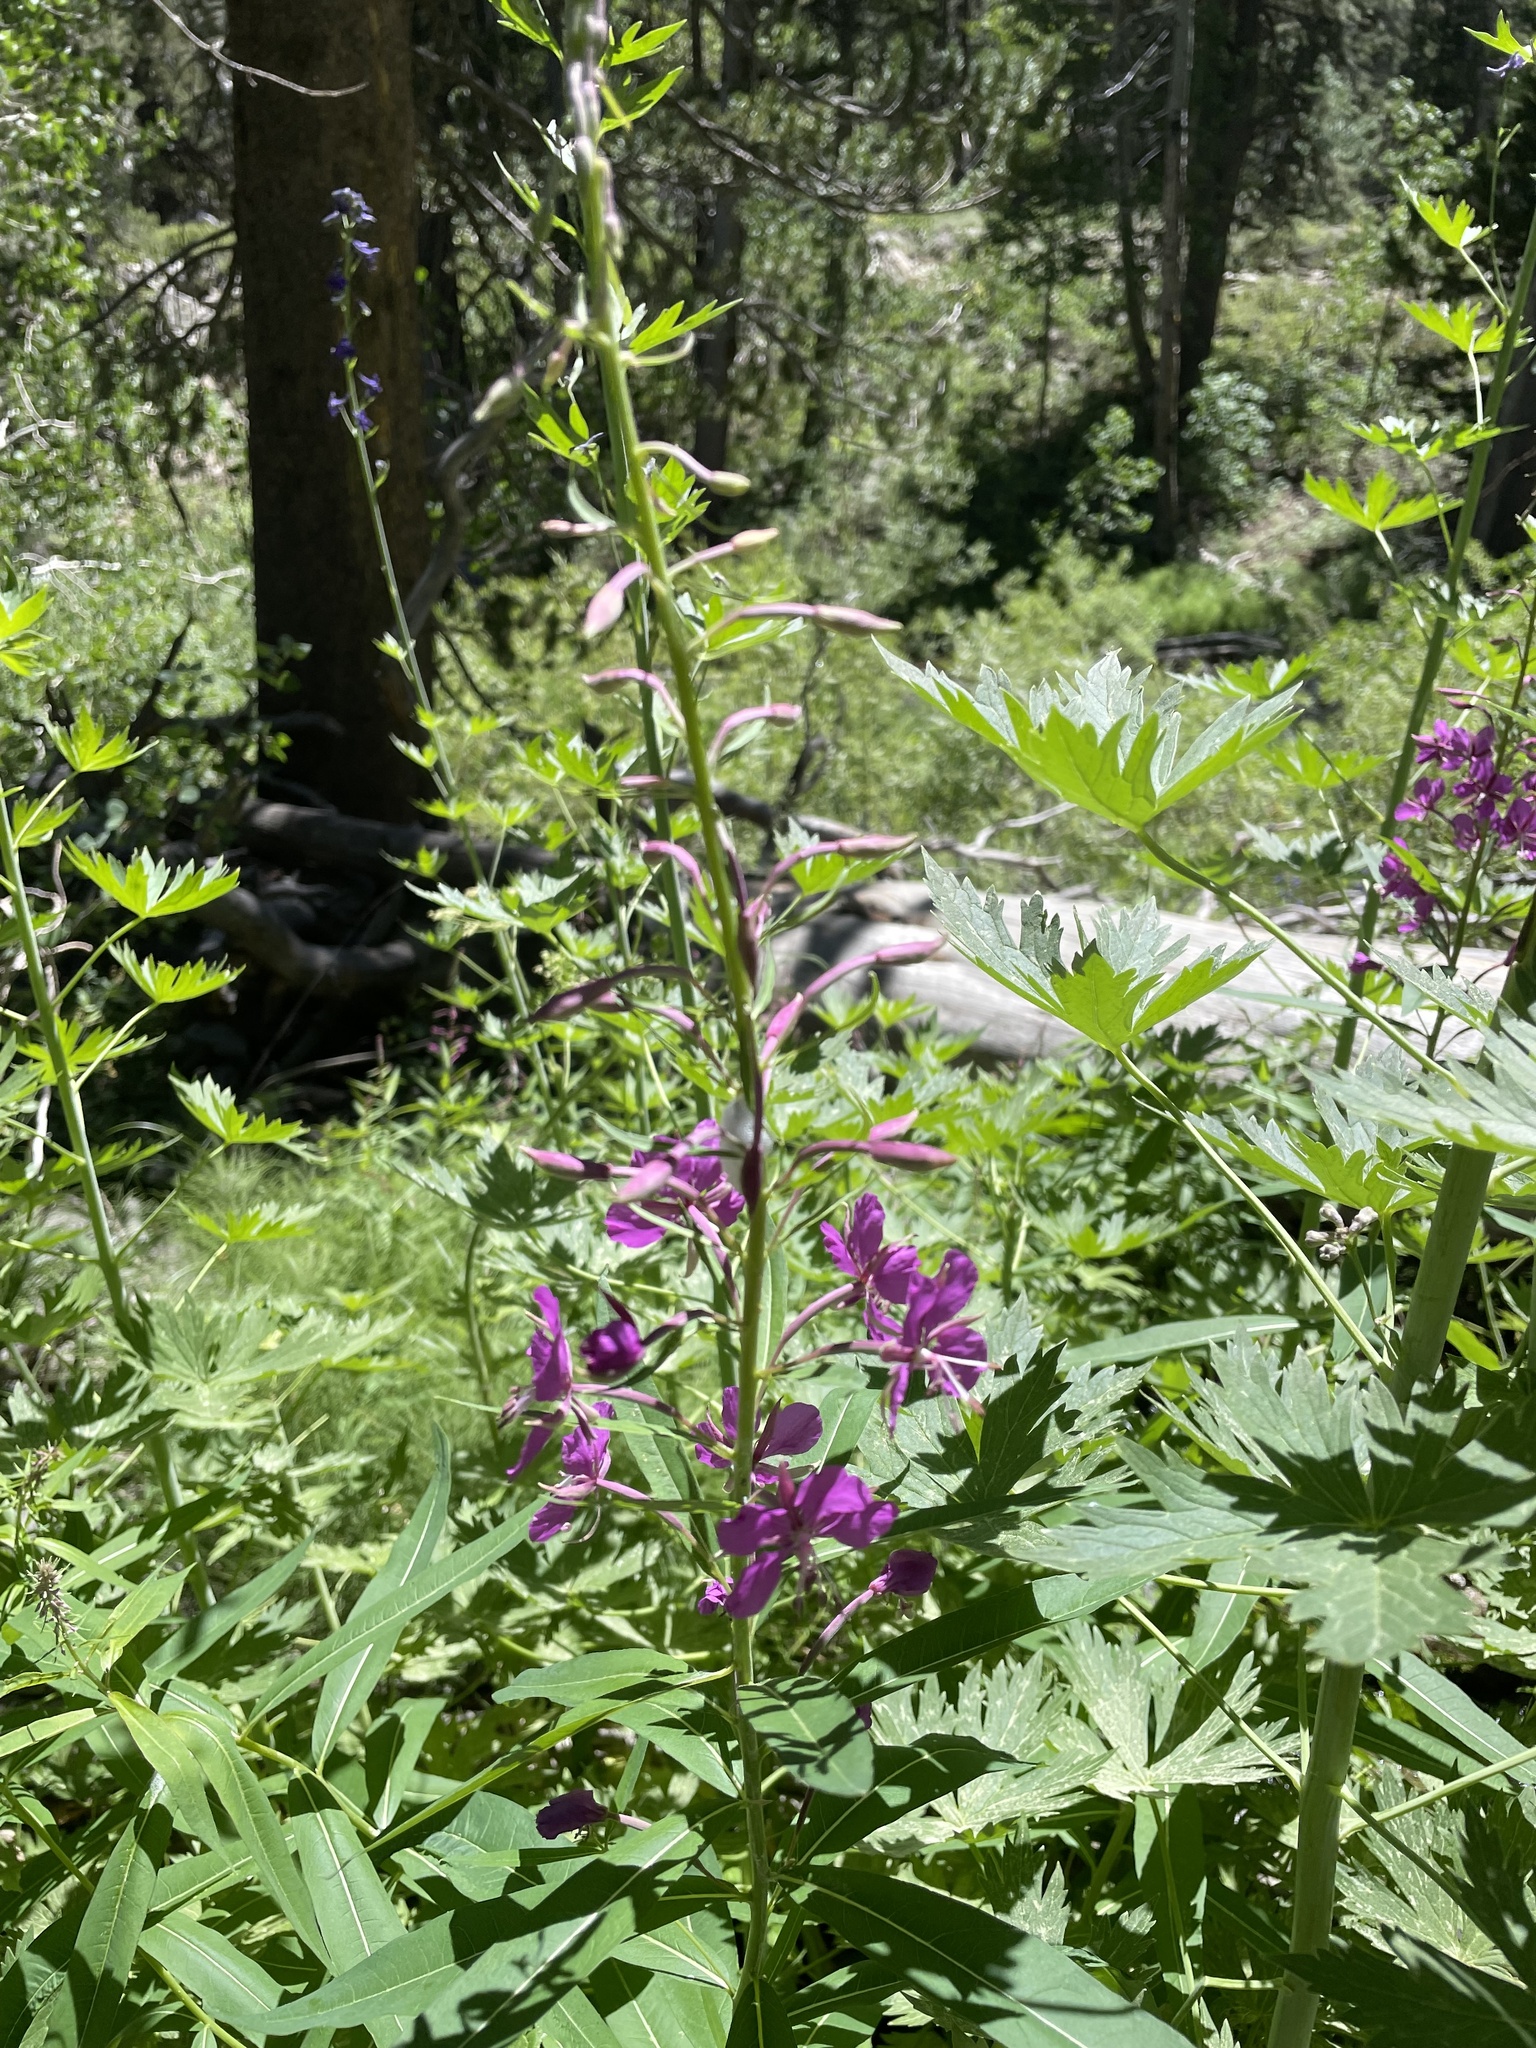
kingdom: Plantae
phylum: Tracheophyta
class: Magnoliopsida
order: Myrtales
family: Onagraceae
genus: Chamaenerion
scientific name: Chamaenerion angustifolium
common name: Fireweed
